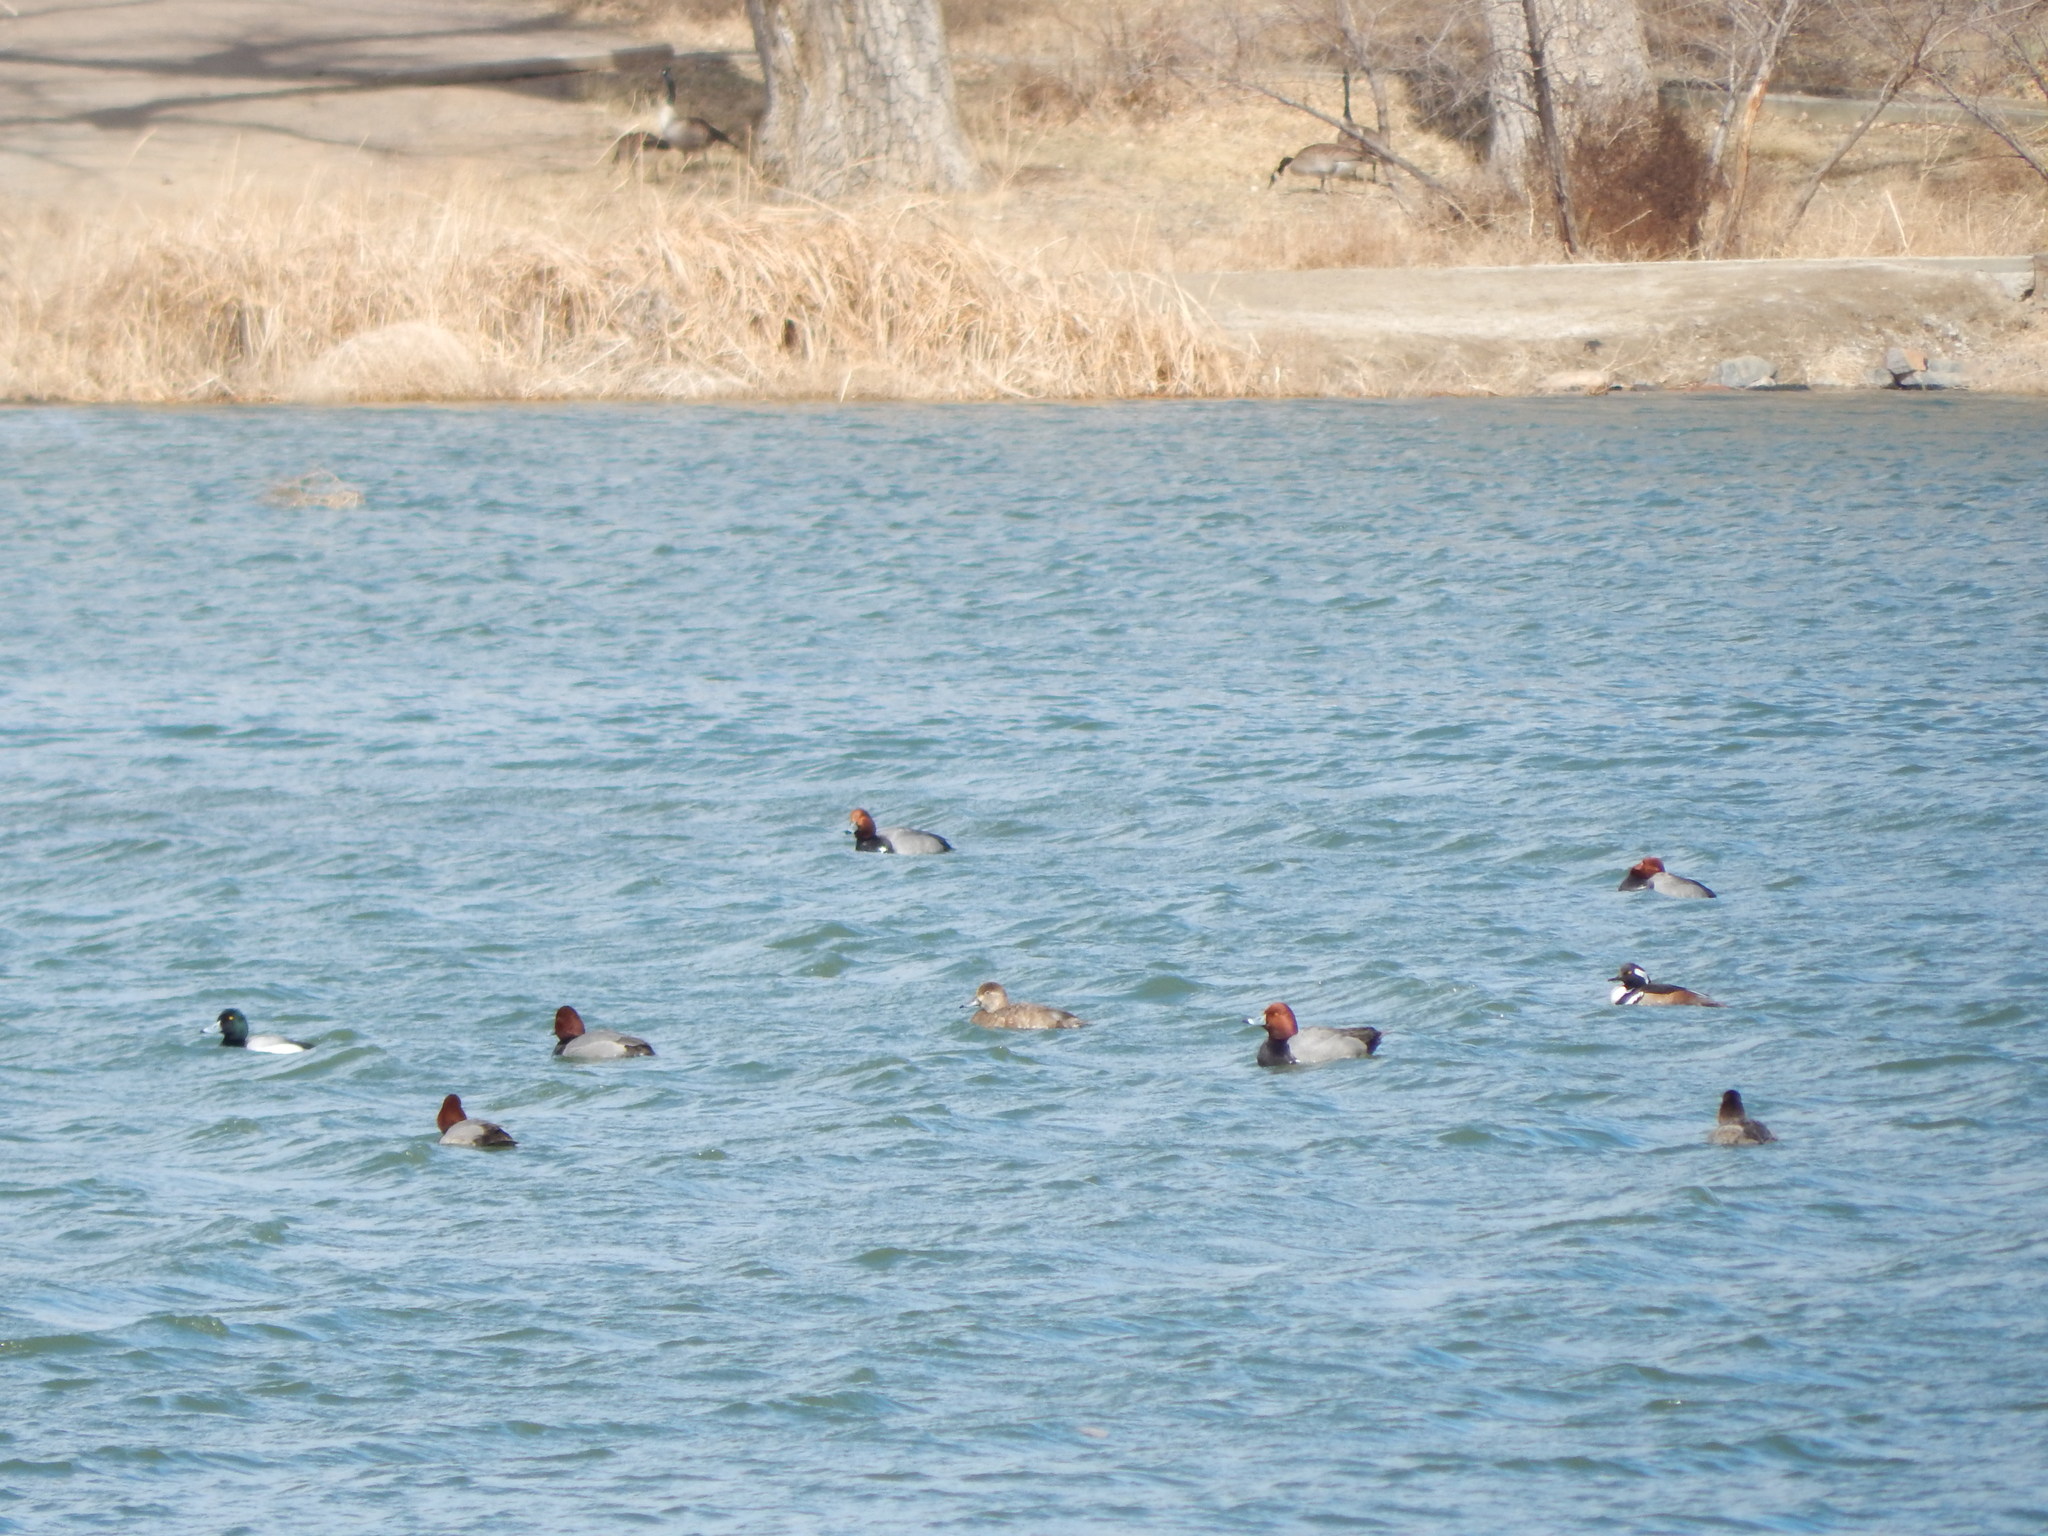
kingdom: Animalia
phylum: Chordata
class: Aves
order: Anseriformes
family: Anatidae
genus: Aythya
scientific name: Aythya americana
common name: Redhead
